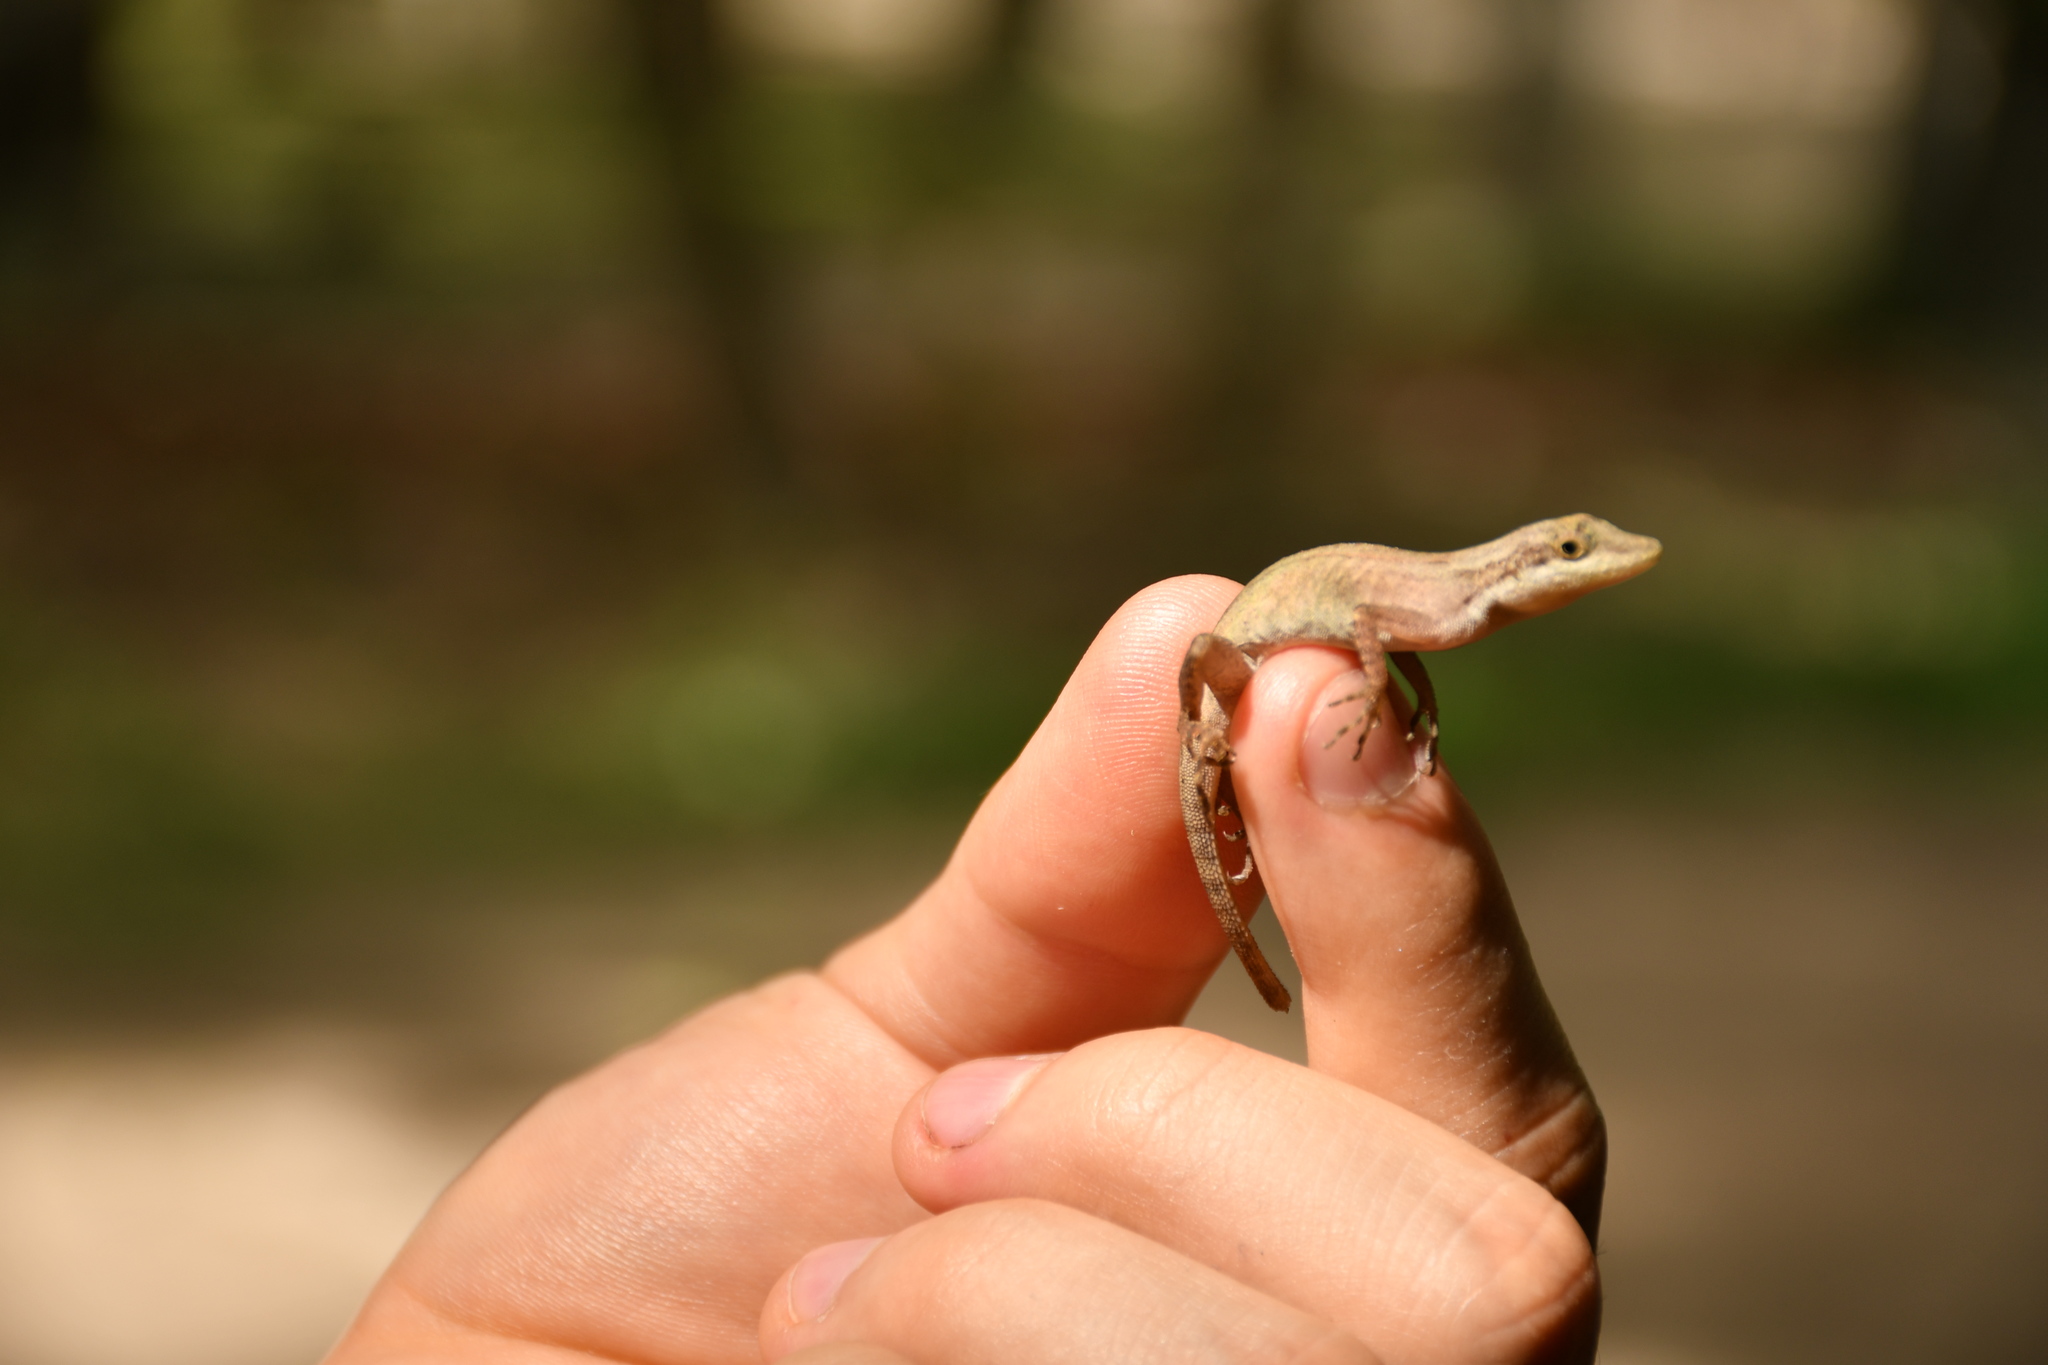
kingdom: Animalia
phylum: Chordata
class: Squamata
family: Dactyloidae
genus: Anolis
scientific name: Anolis rodriguezii
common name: Middle american smooth anole
